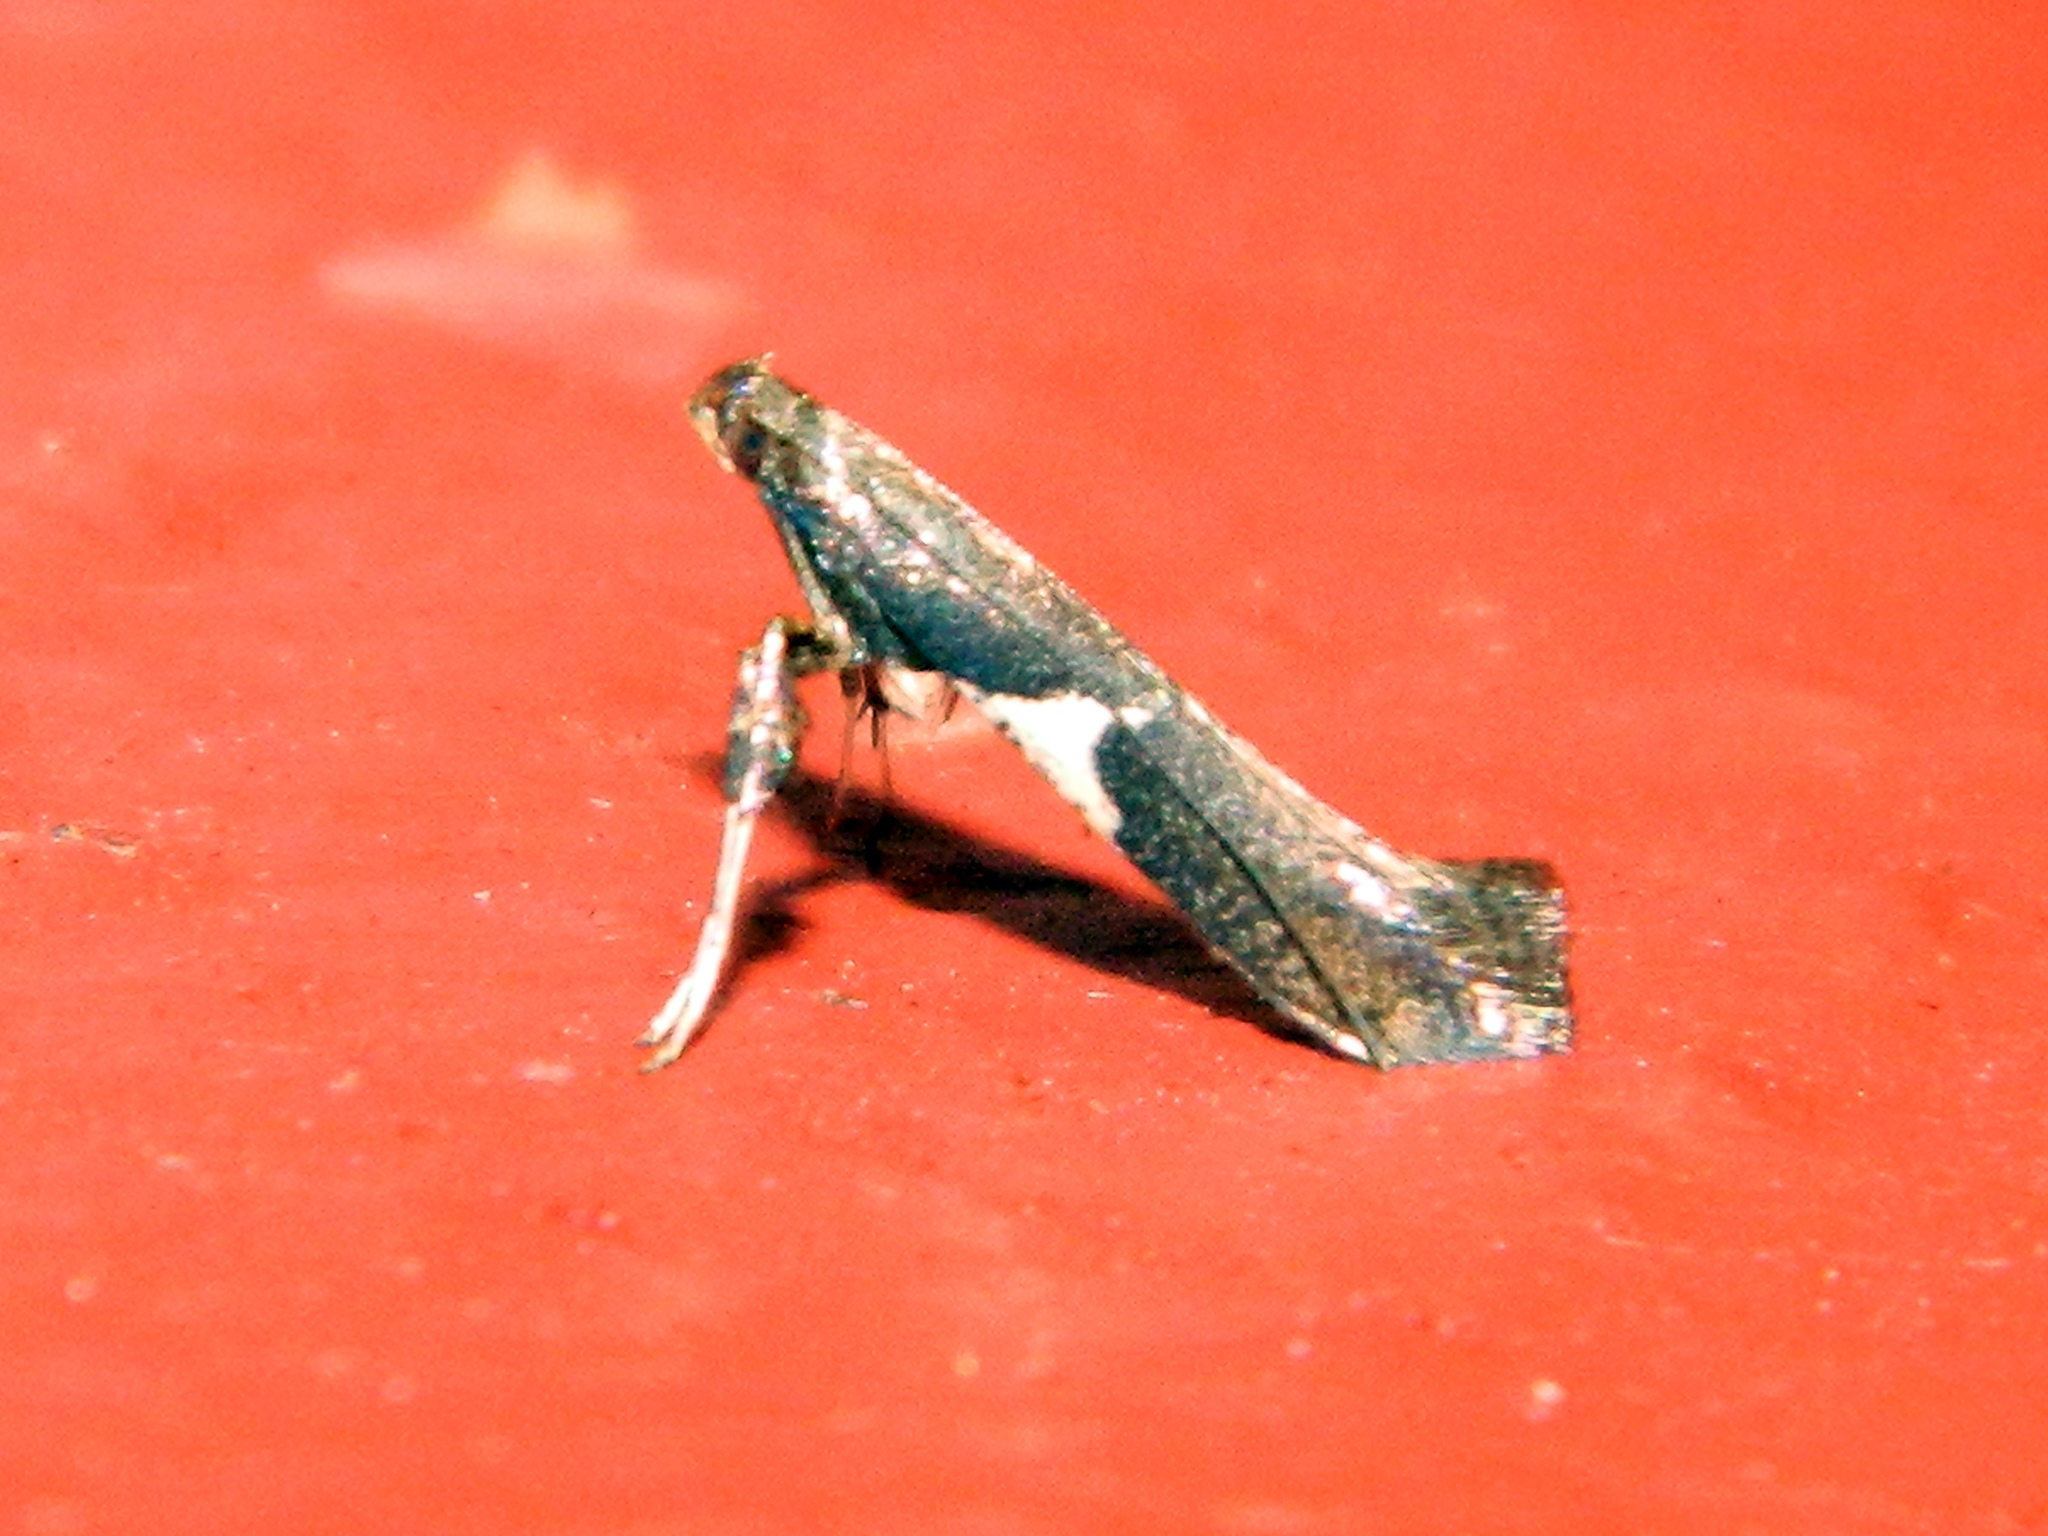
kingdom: Animalia
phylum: Arthropoda
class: Insecta
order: Lepidoptera
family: Gracillariidae
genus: Caloptilia
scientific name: Caloptilia stigmatella
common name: White-triangle slender
